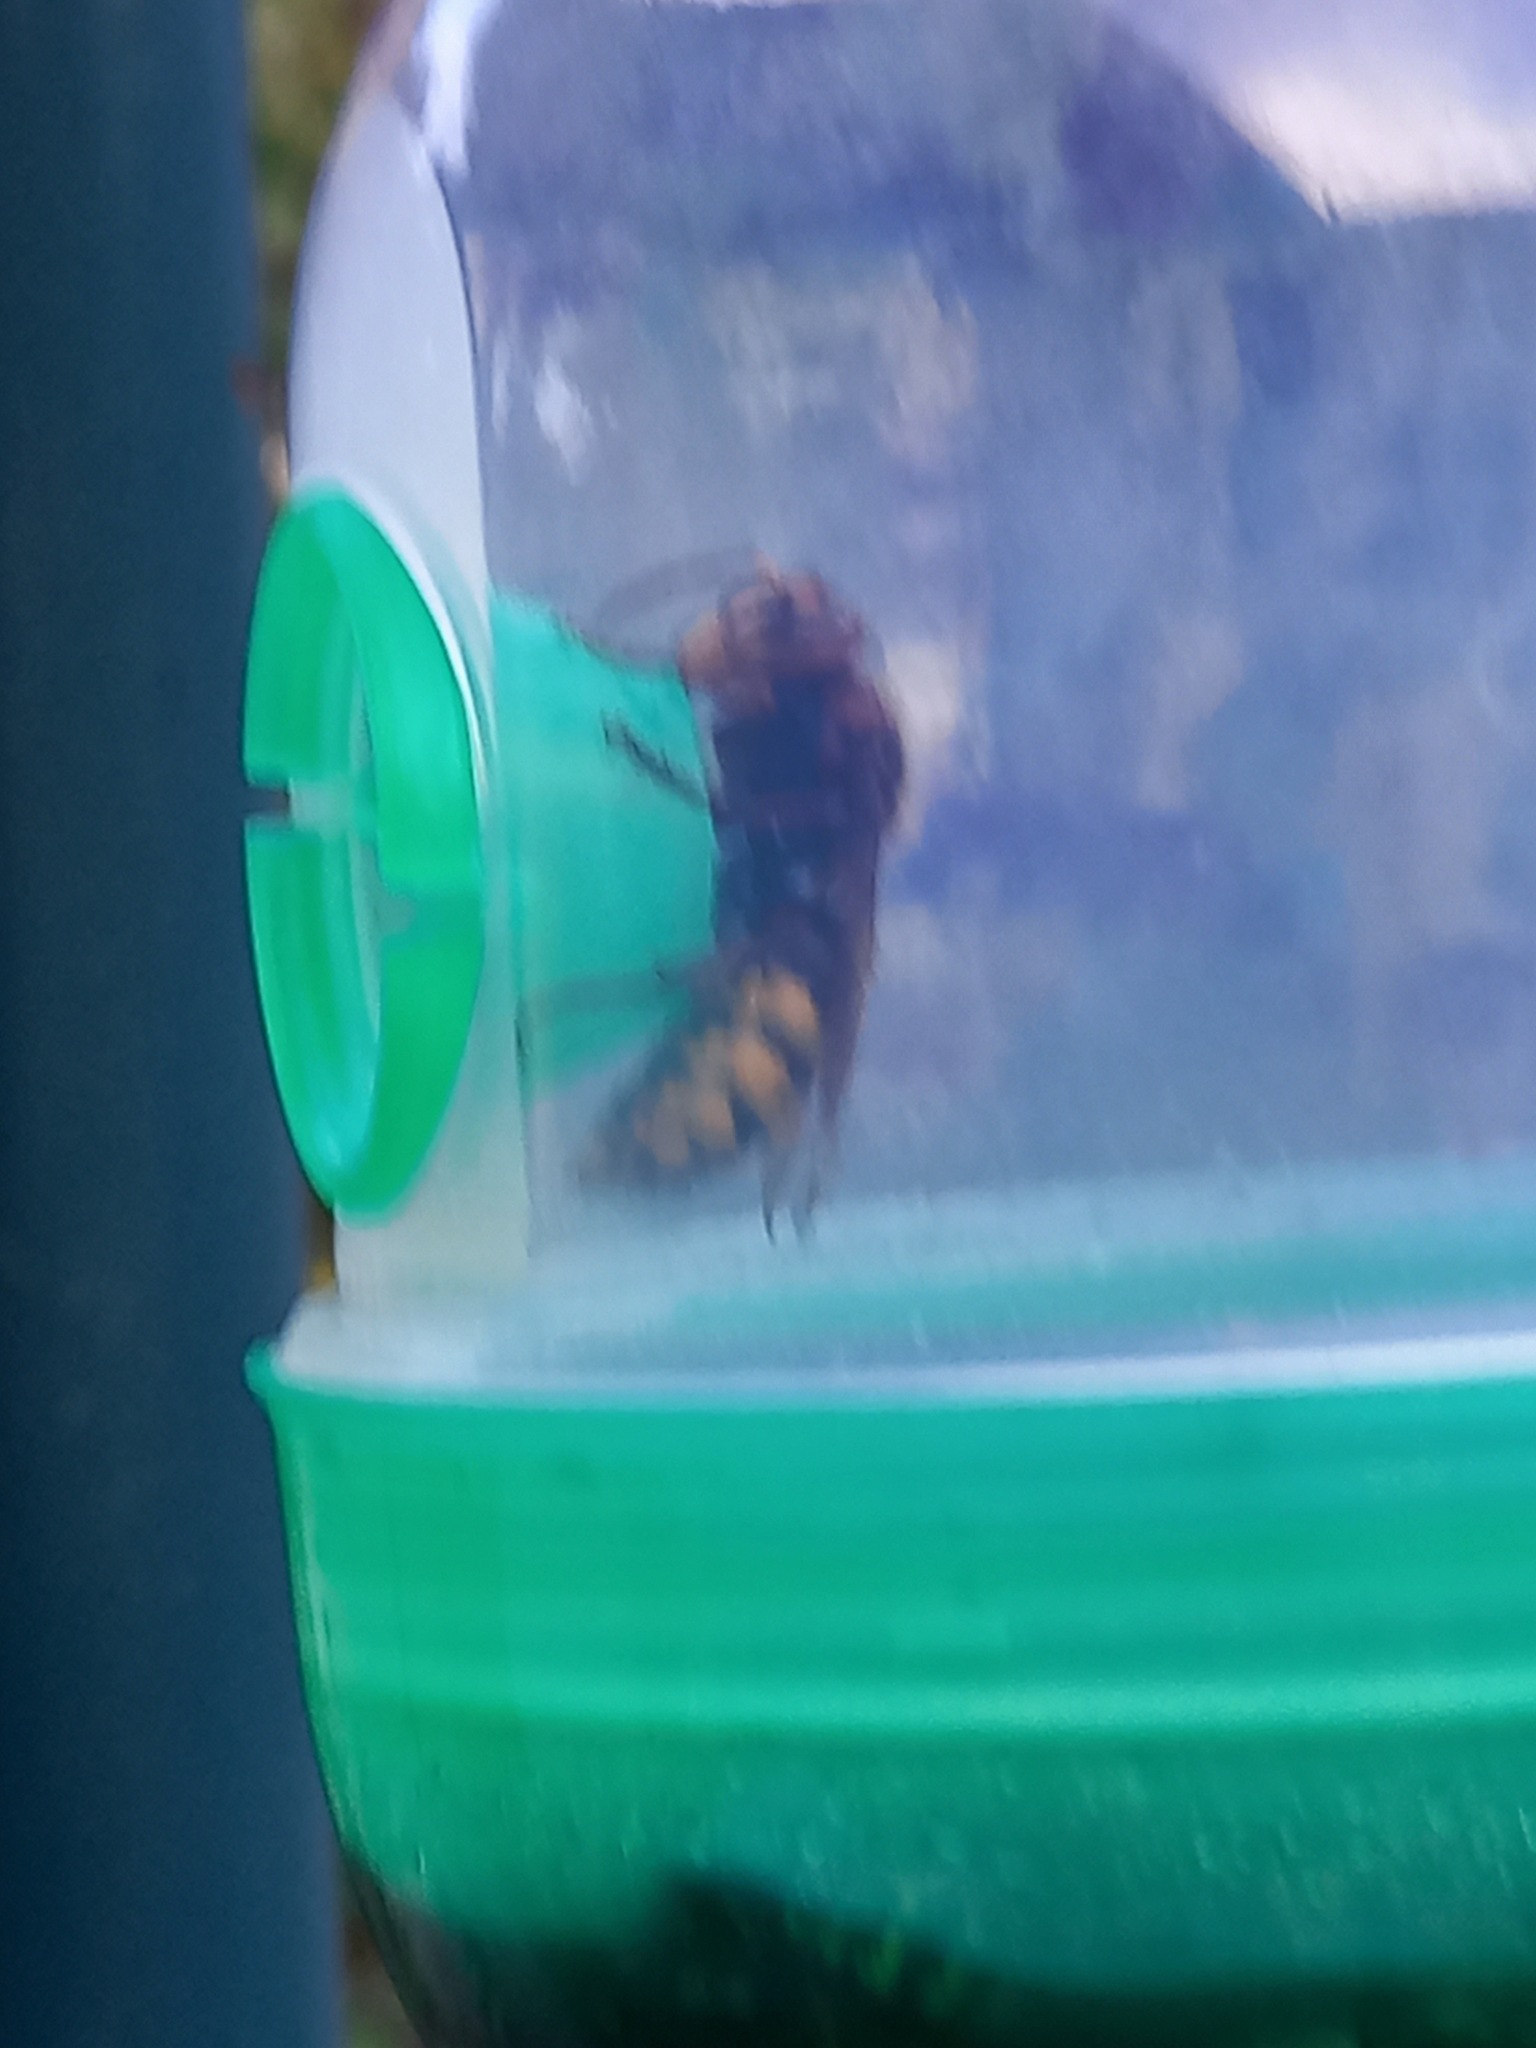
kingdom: Animalia
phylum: Arthropoda
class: Insecta
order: Hymenoptera
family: Vespidae
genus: Vespa
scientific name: Vespa crabro
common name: Hornet
